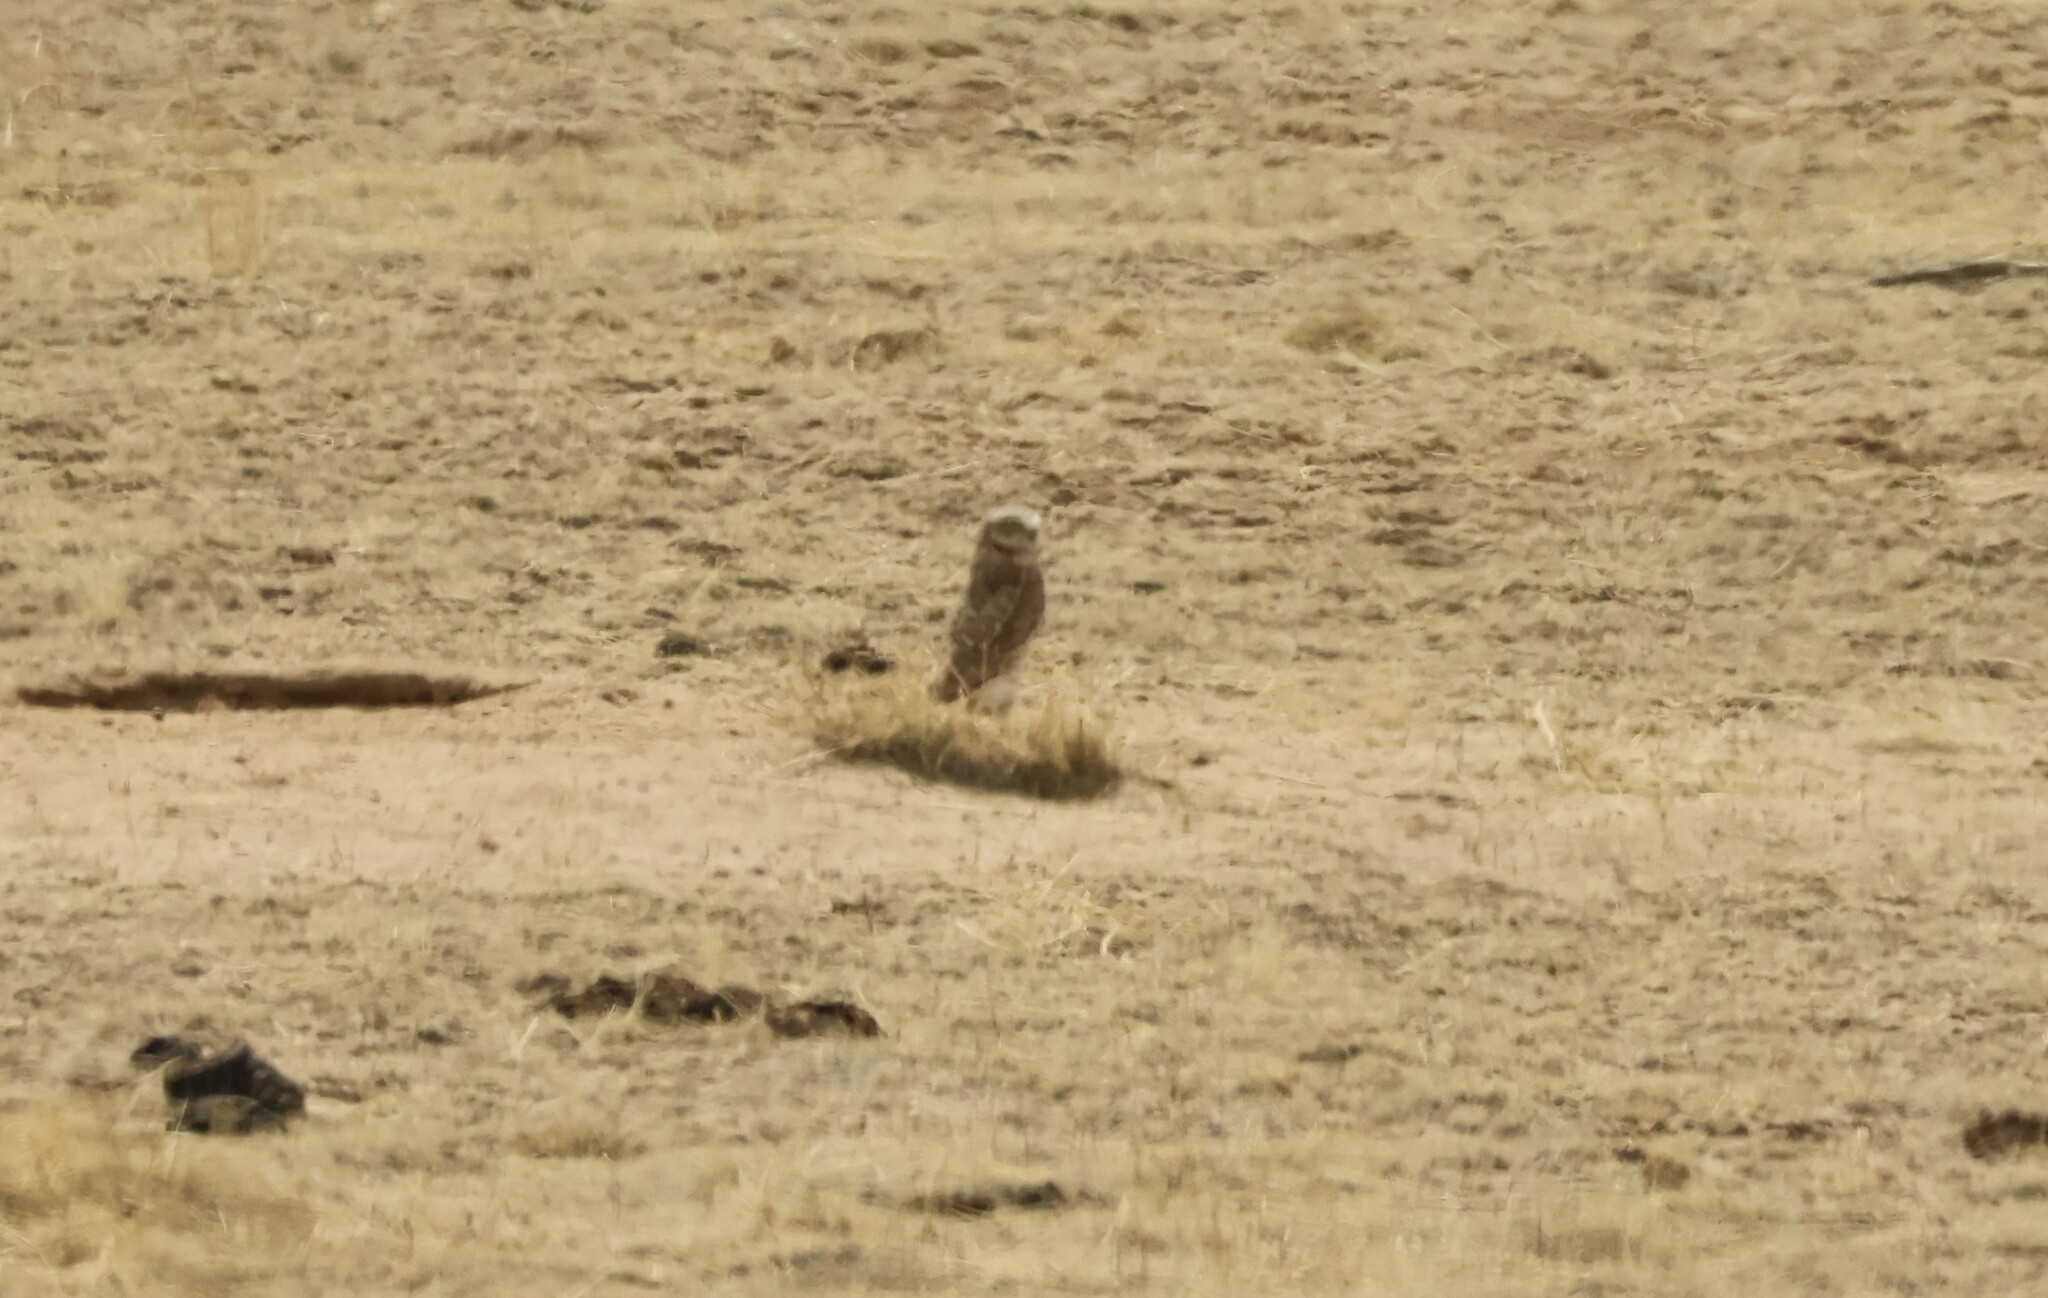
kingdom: Animalia
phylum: Chordata
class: Aves
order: Strigiformes
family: Strigidae
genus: Athene
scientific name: Athene cunicularia
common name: Burrowing owl
